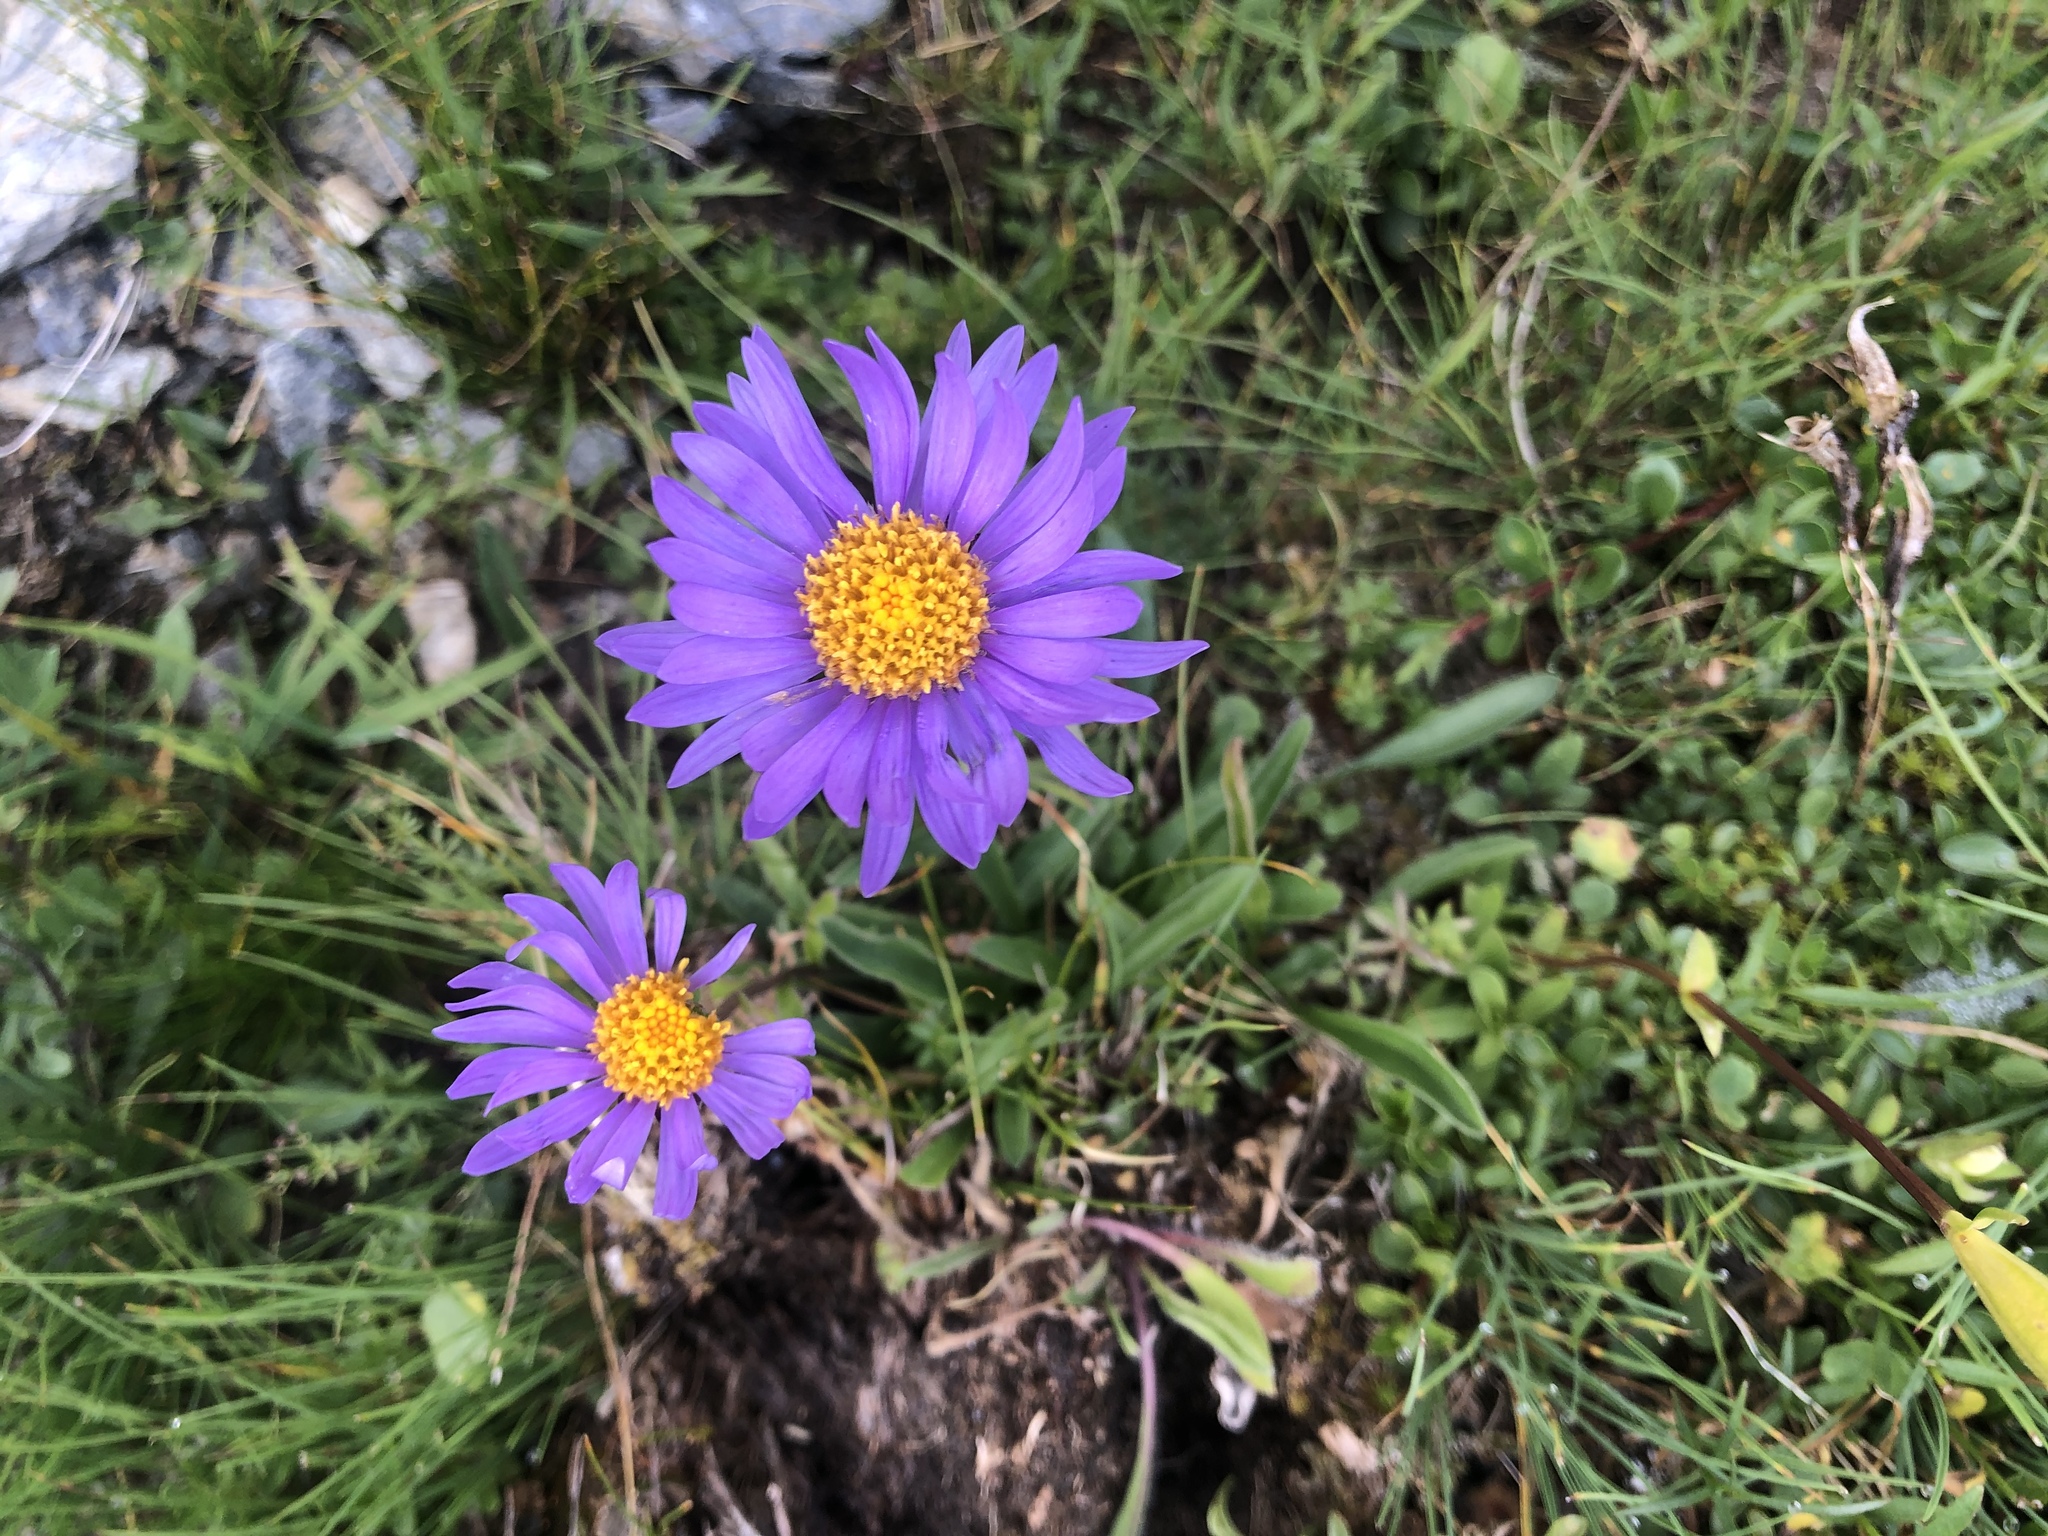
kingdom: Plantae
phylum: Tracheophyta
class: Magnoliopsida
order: Asterales
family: Asteraceae
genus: Aster
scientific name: Aster alpinus
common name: Alpine aster
